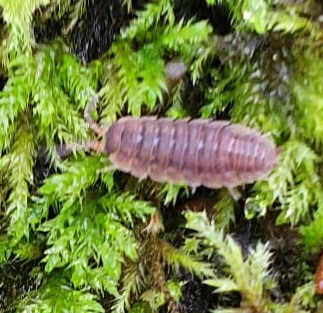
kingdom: Animalia
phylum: Arthropoda
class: Malacostraca
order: Isopoda
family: Porcellionidae
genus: Porcellio
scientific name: Porcellio scaber
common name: Common rough woodlouse
